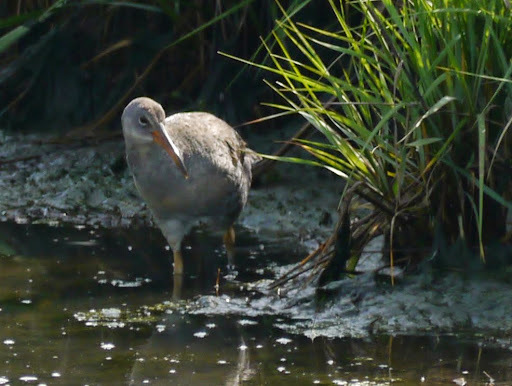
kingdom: Animalia
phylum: Chordata
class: Aves
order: Gruiformes
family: Rallidae
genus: Rallus
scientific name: Rallus crepitans
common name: Clapper rail
